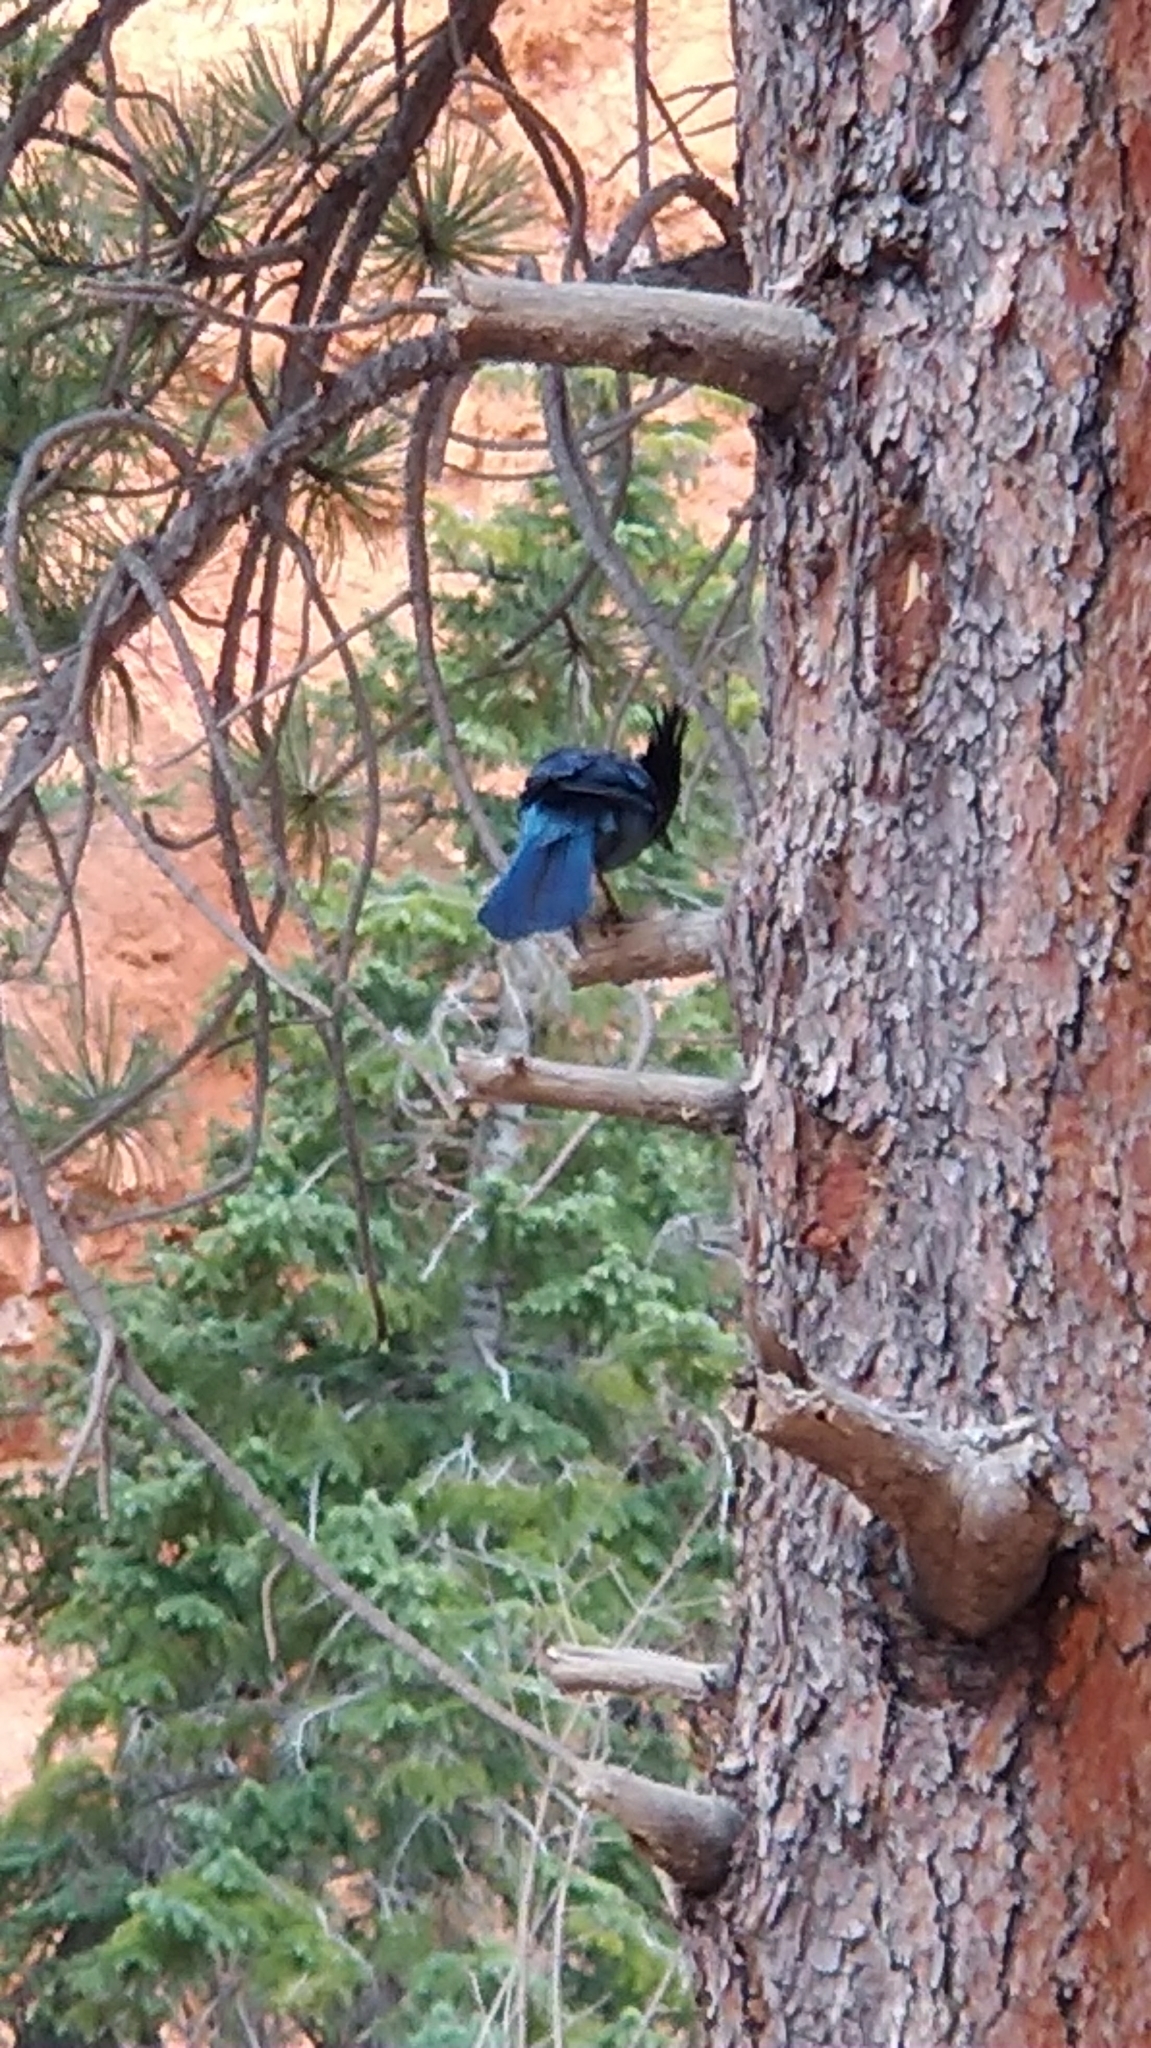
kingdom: Animalia
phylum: Chordata
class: Aves
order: Passeriformes
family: Corvidae
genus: Cyanocitta
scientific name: Cyanocitta stelleri
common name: Steller's jay
